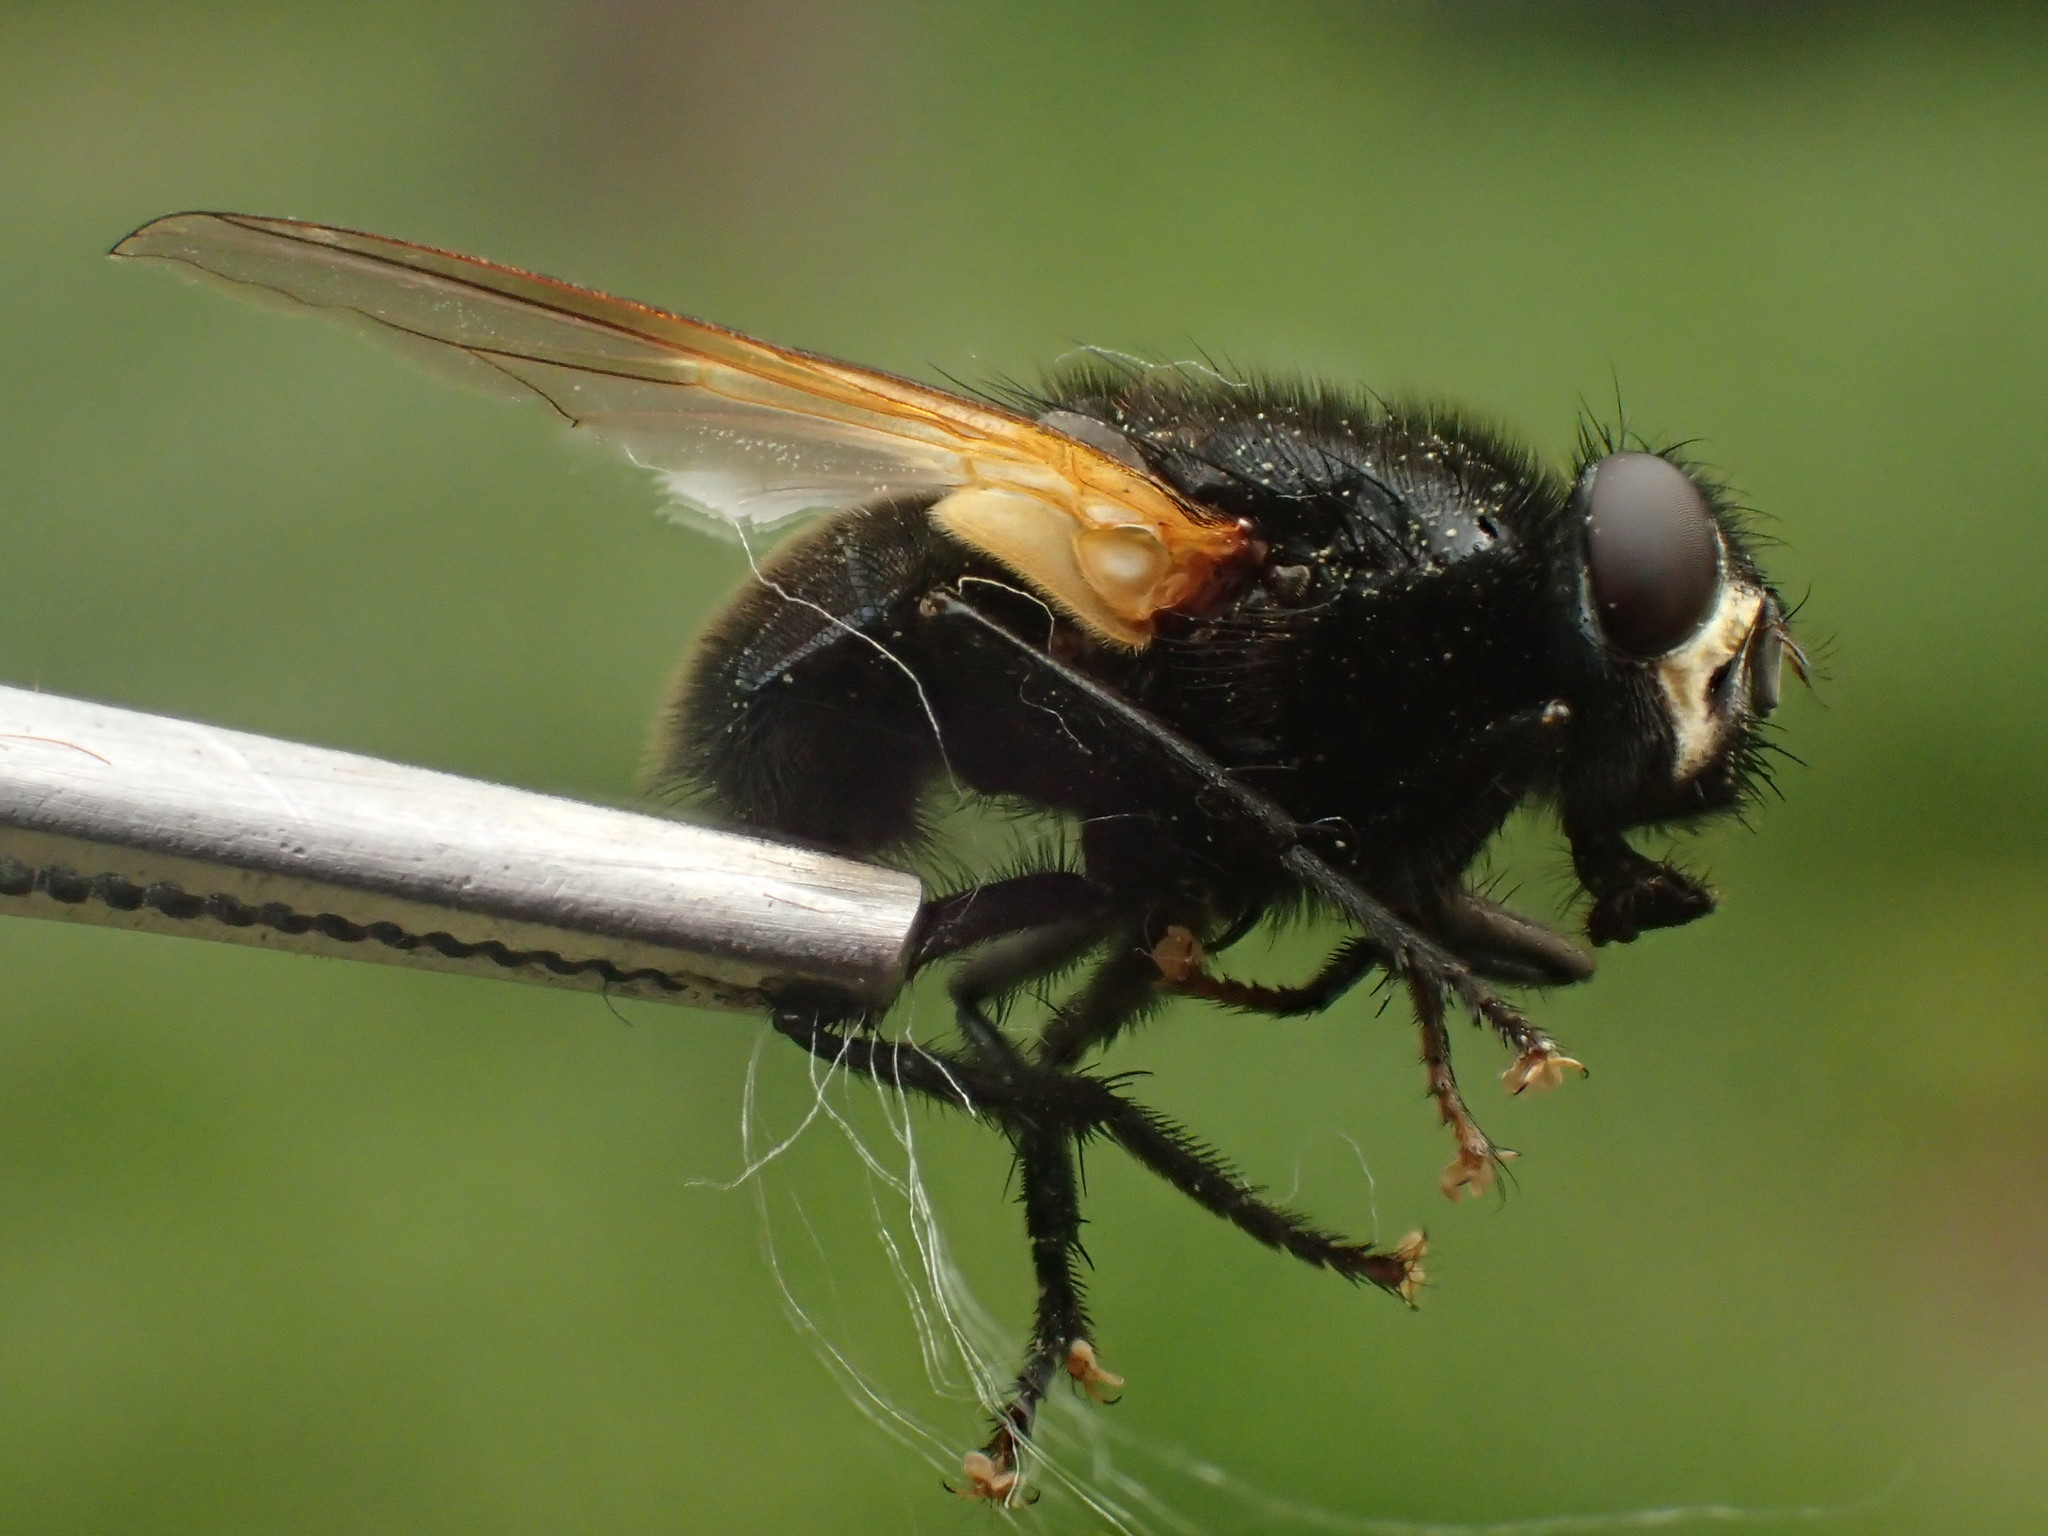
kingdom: Animalia
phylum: Arthropoda
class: Insecta
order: Diptera
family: Muscidae
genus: Mesembrina
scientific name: Mesembrina meridiana
